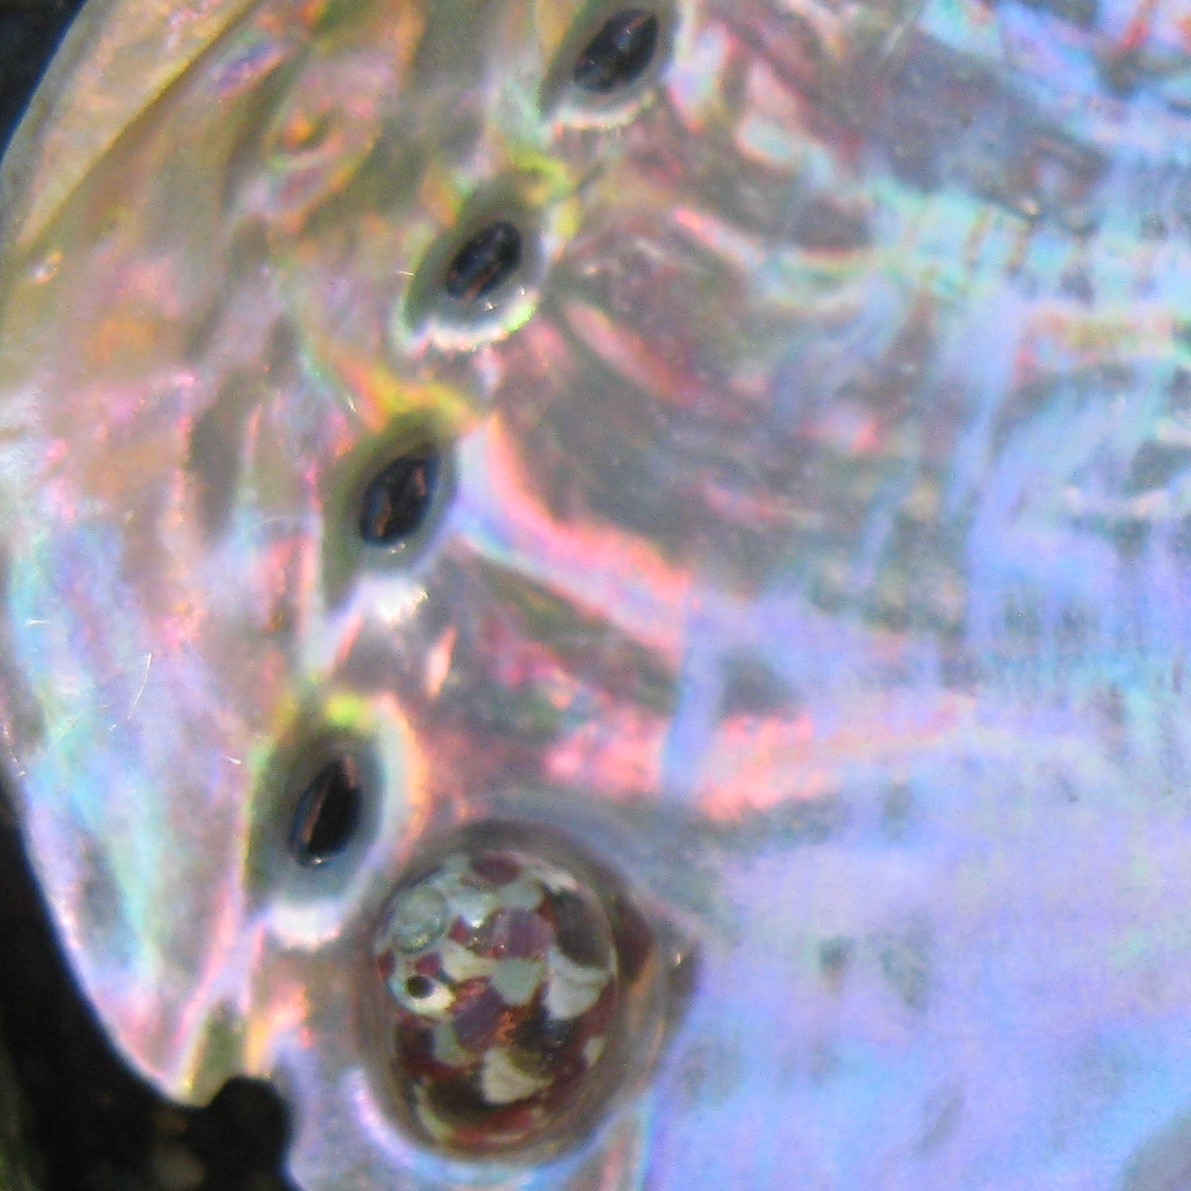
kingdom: Animalia
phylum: Mollusca
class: Gastropoda
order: Trochida
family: Trochidae
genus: Micrelenchus
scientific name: Micrelenchus tessellatus
